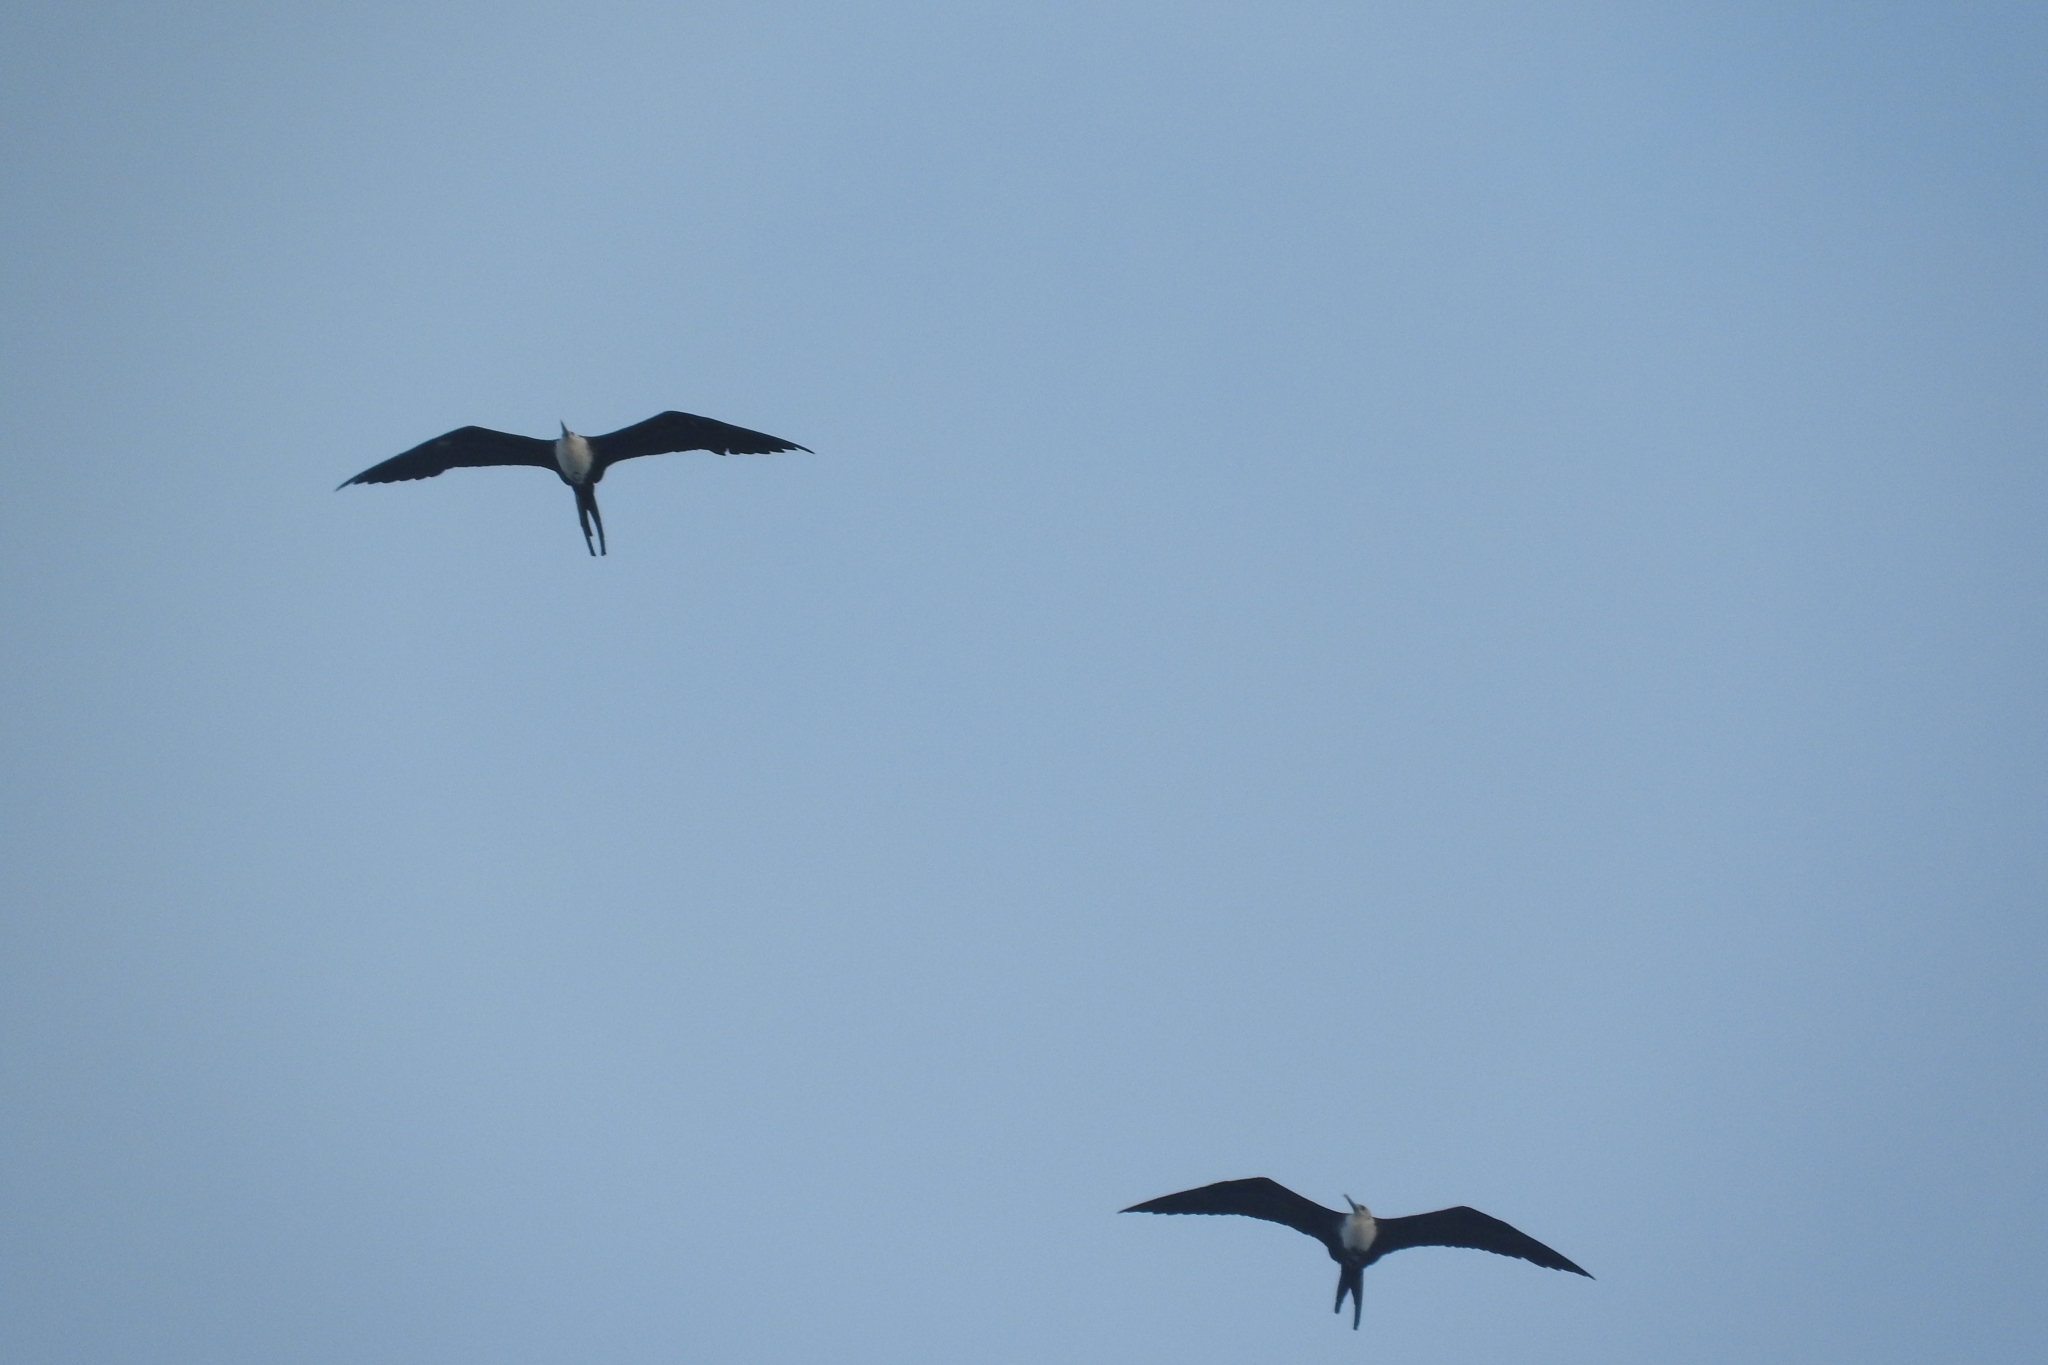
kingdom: Animalia
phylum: Chordata
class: Aves
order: Suliformes
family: Fregatidae
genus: Fregata
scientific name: Fregata magnificens
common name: Magnificent frigatebird
